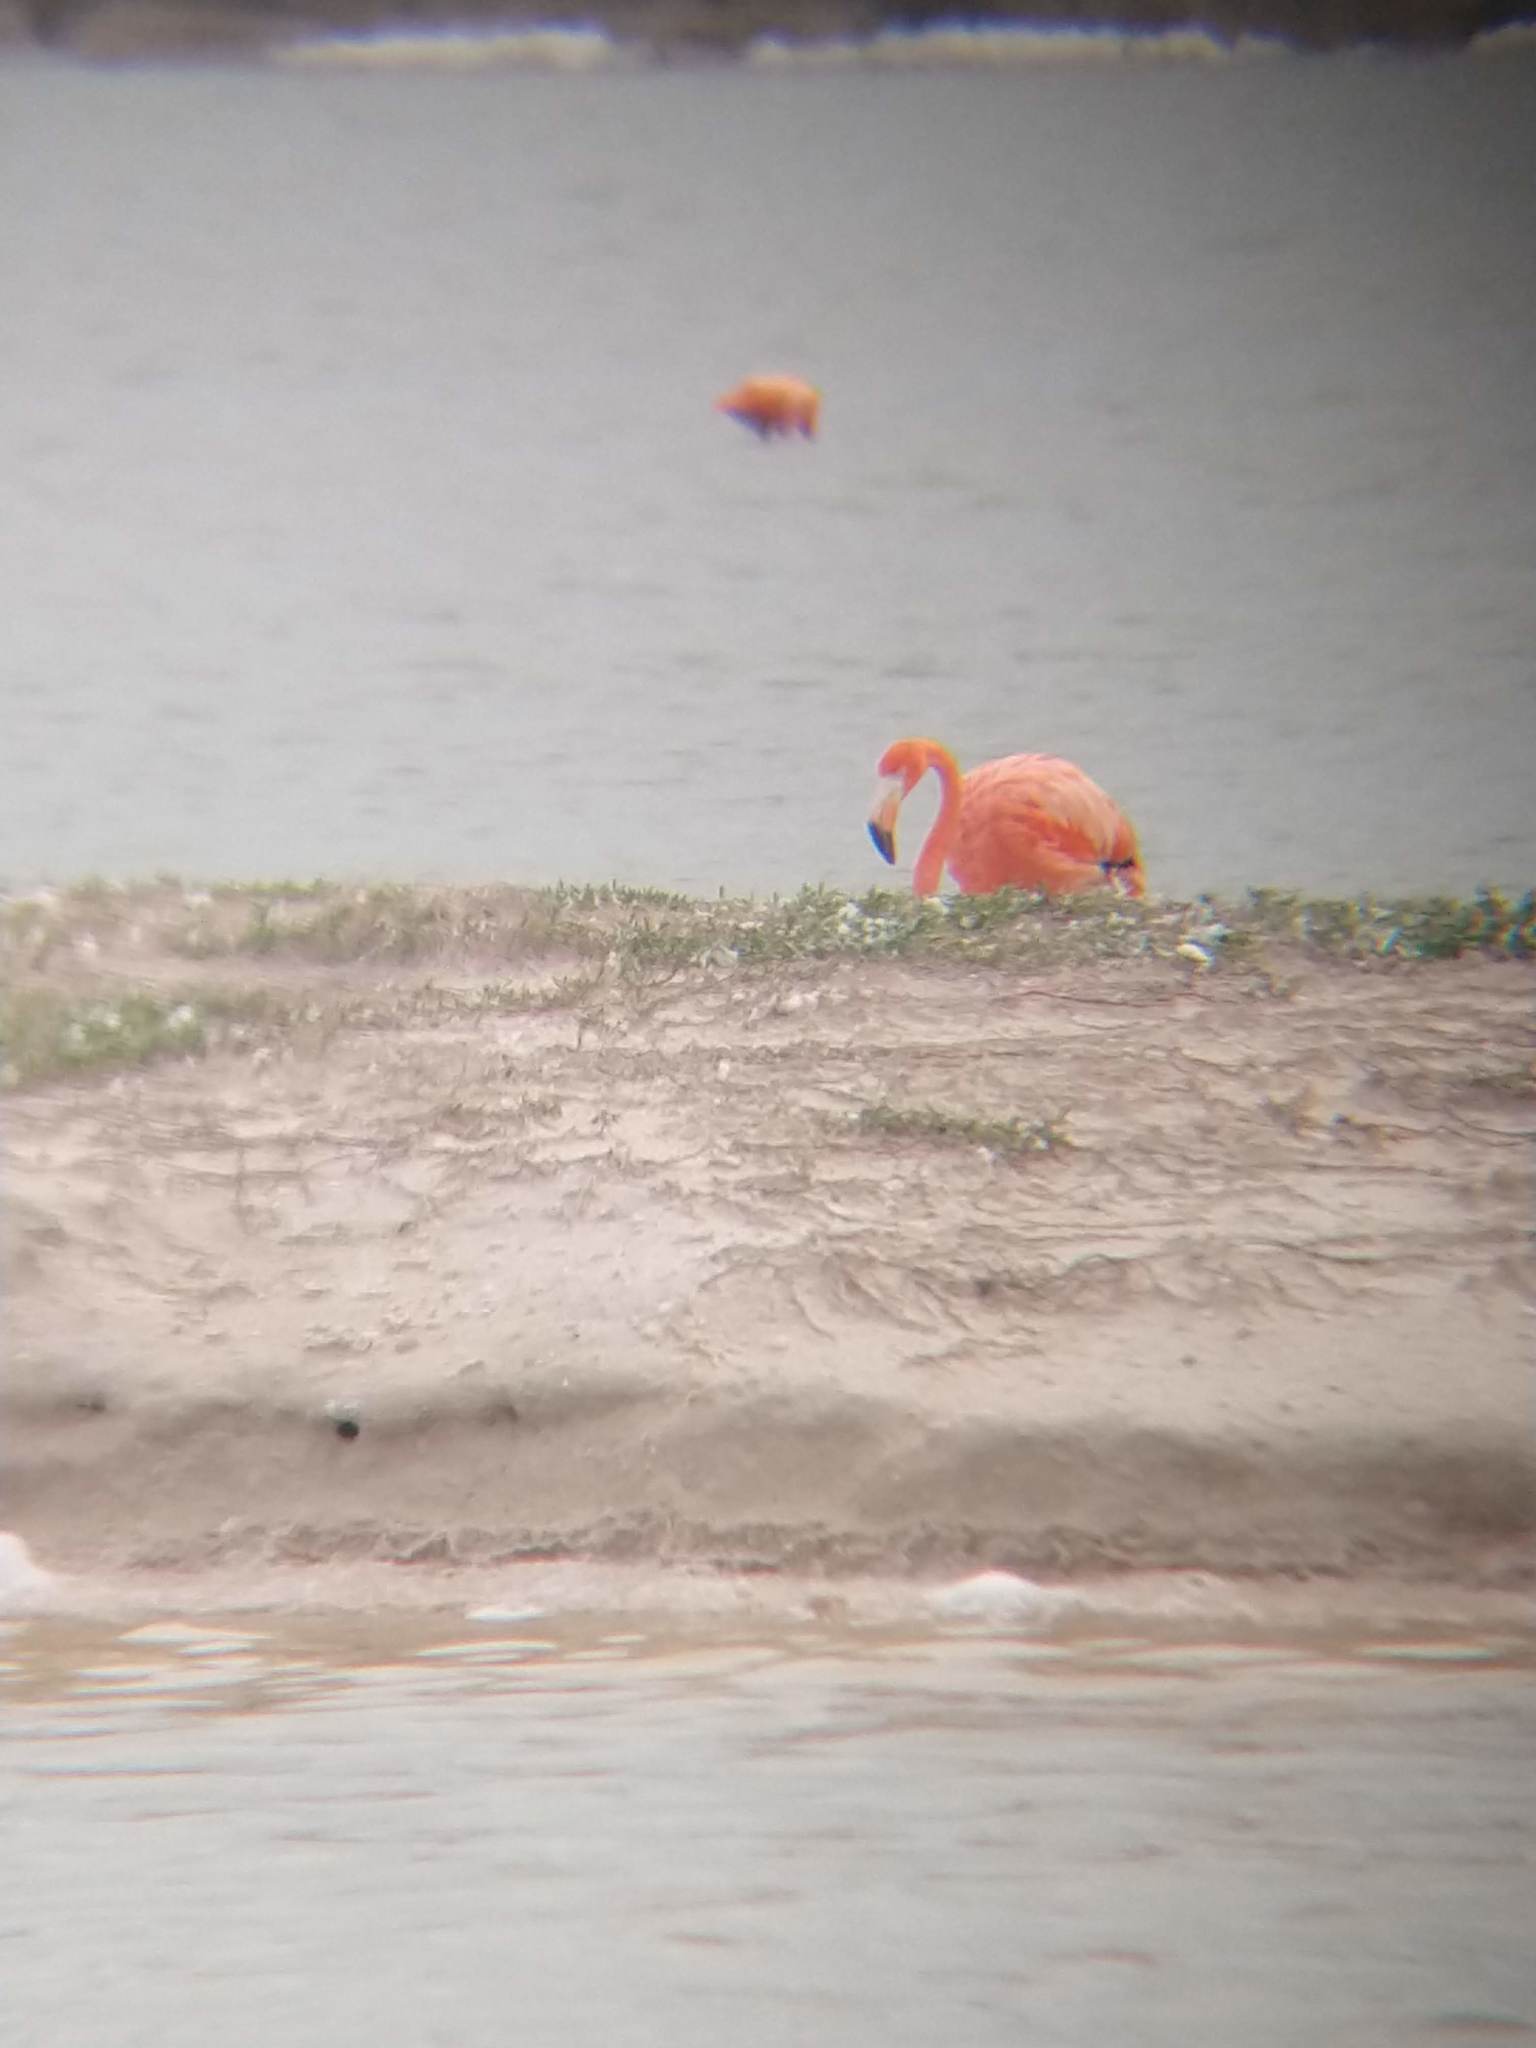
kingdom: Animalia
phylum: Chordata
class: Aves
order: Phoenicopteriformes
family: Phoenicopteridae
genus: Phoenicopterus
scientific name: Phoenicopterus ruber
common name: American flamingo
